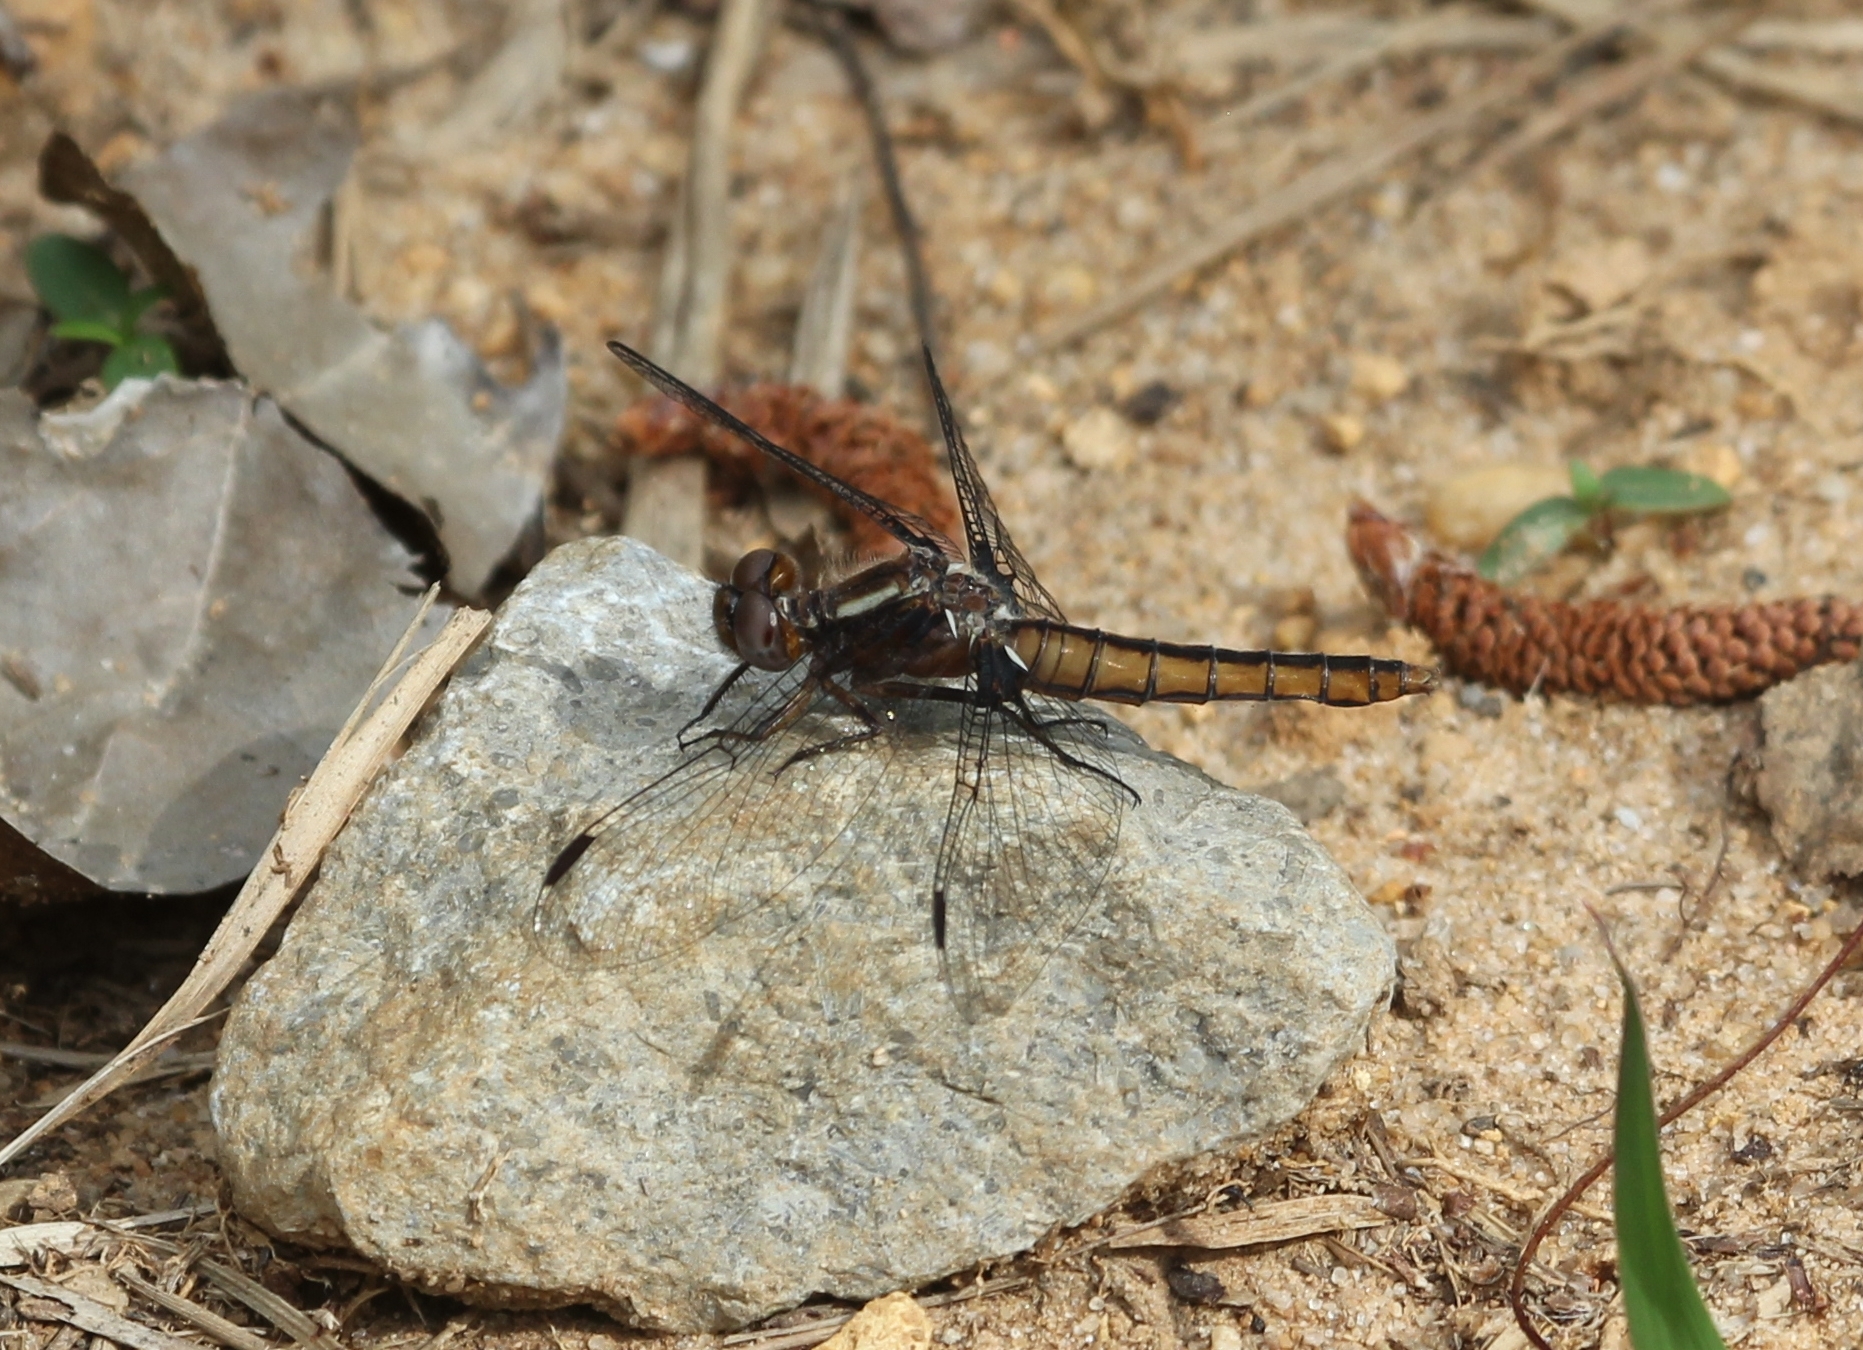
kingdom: Animalia
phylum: Arthropoda
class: Insecta
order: Odonata
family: Libellulidae
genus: Ladona
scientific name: Ladona deplanata
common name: Blue corporal
